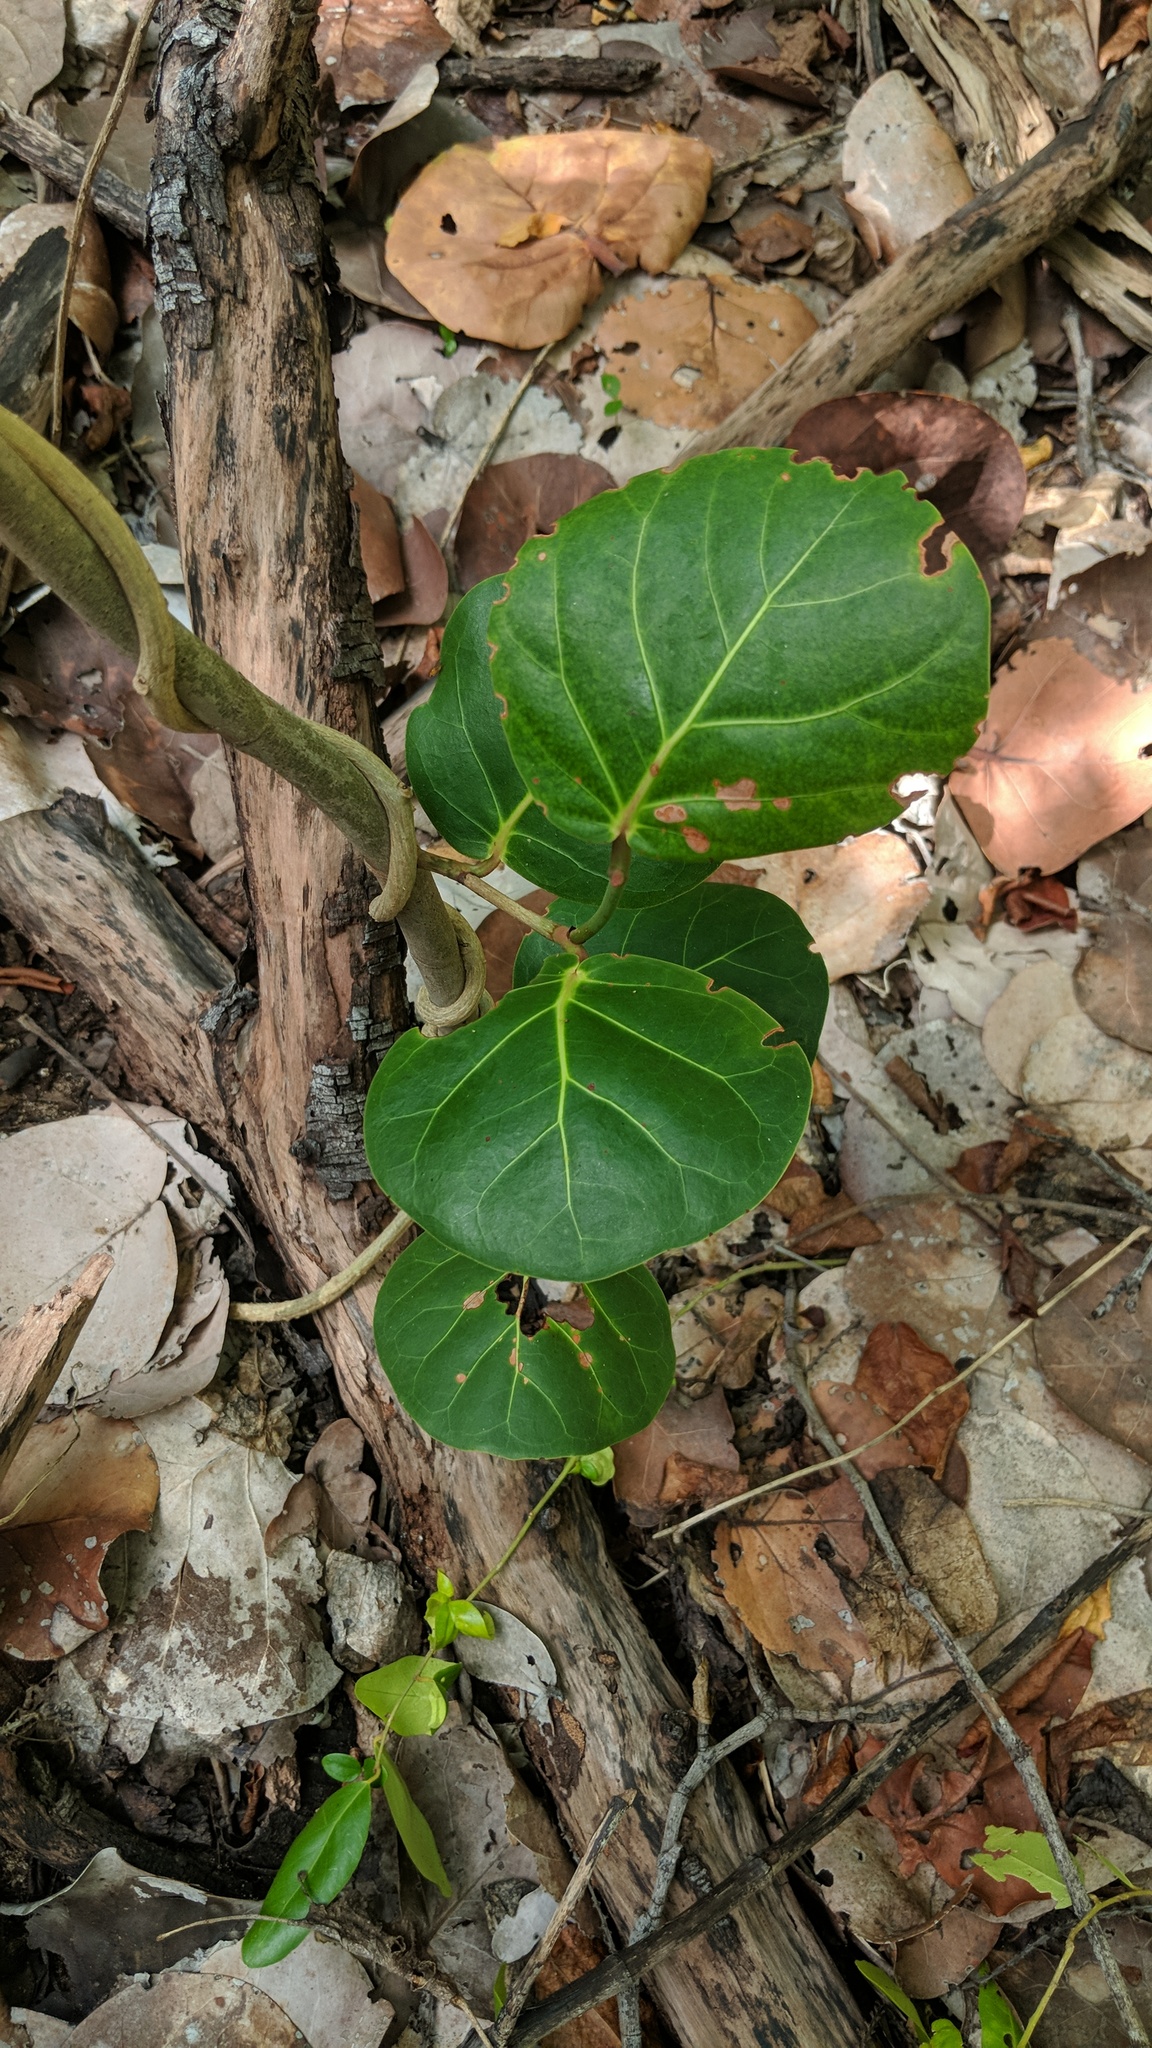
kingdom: Plantae
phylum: Tracheophyta
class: Magnoliopsida
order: Caryophyllales
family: Polygonaceae
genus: Coccoloba
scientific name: Coccoloba uvifera
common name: Seagrape
